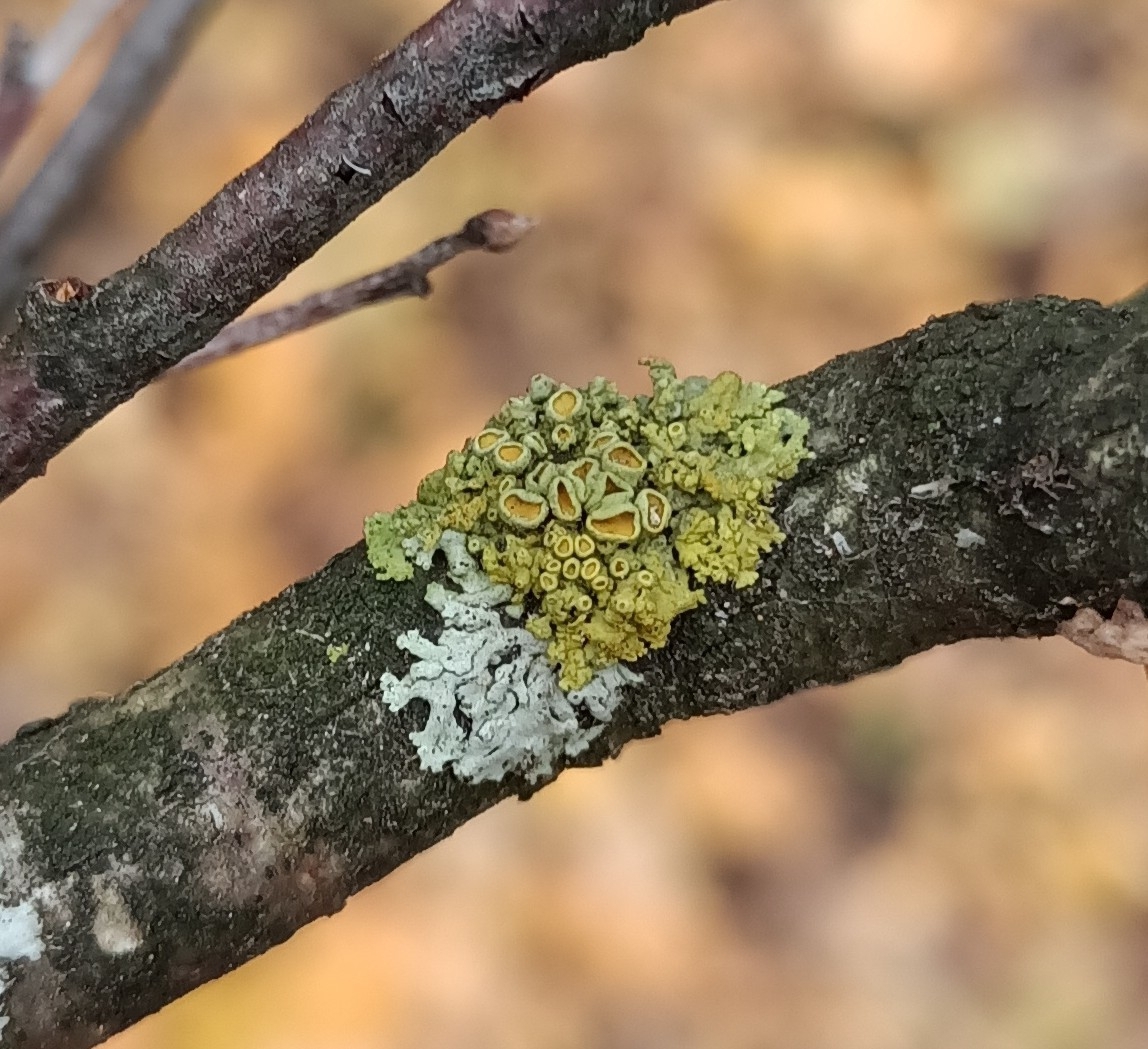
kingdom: Fungi
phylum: Ascomycota
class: Lecanoromycetes
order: Teloschistales
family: Teloschistaceae
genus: Polycauliona
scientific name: Polycauliona polycarpa
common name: Pin-cushion sunburst lichen
